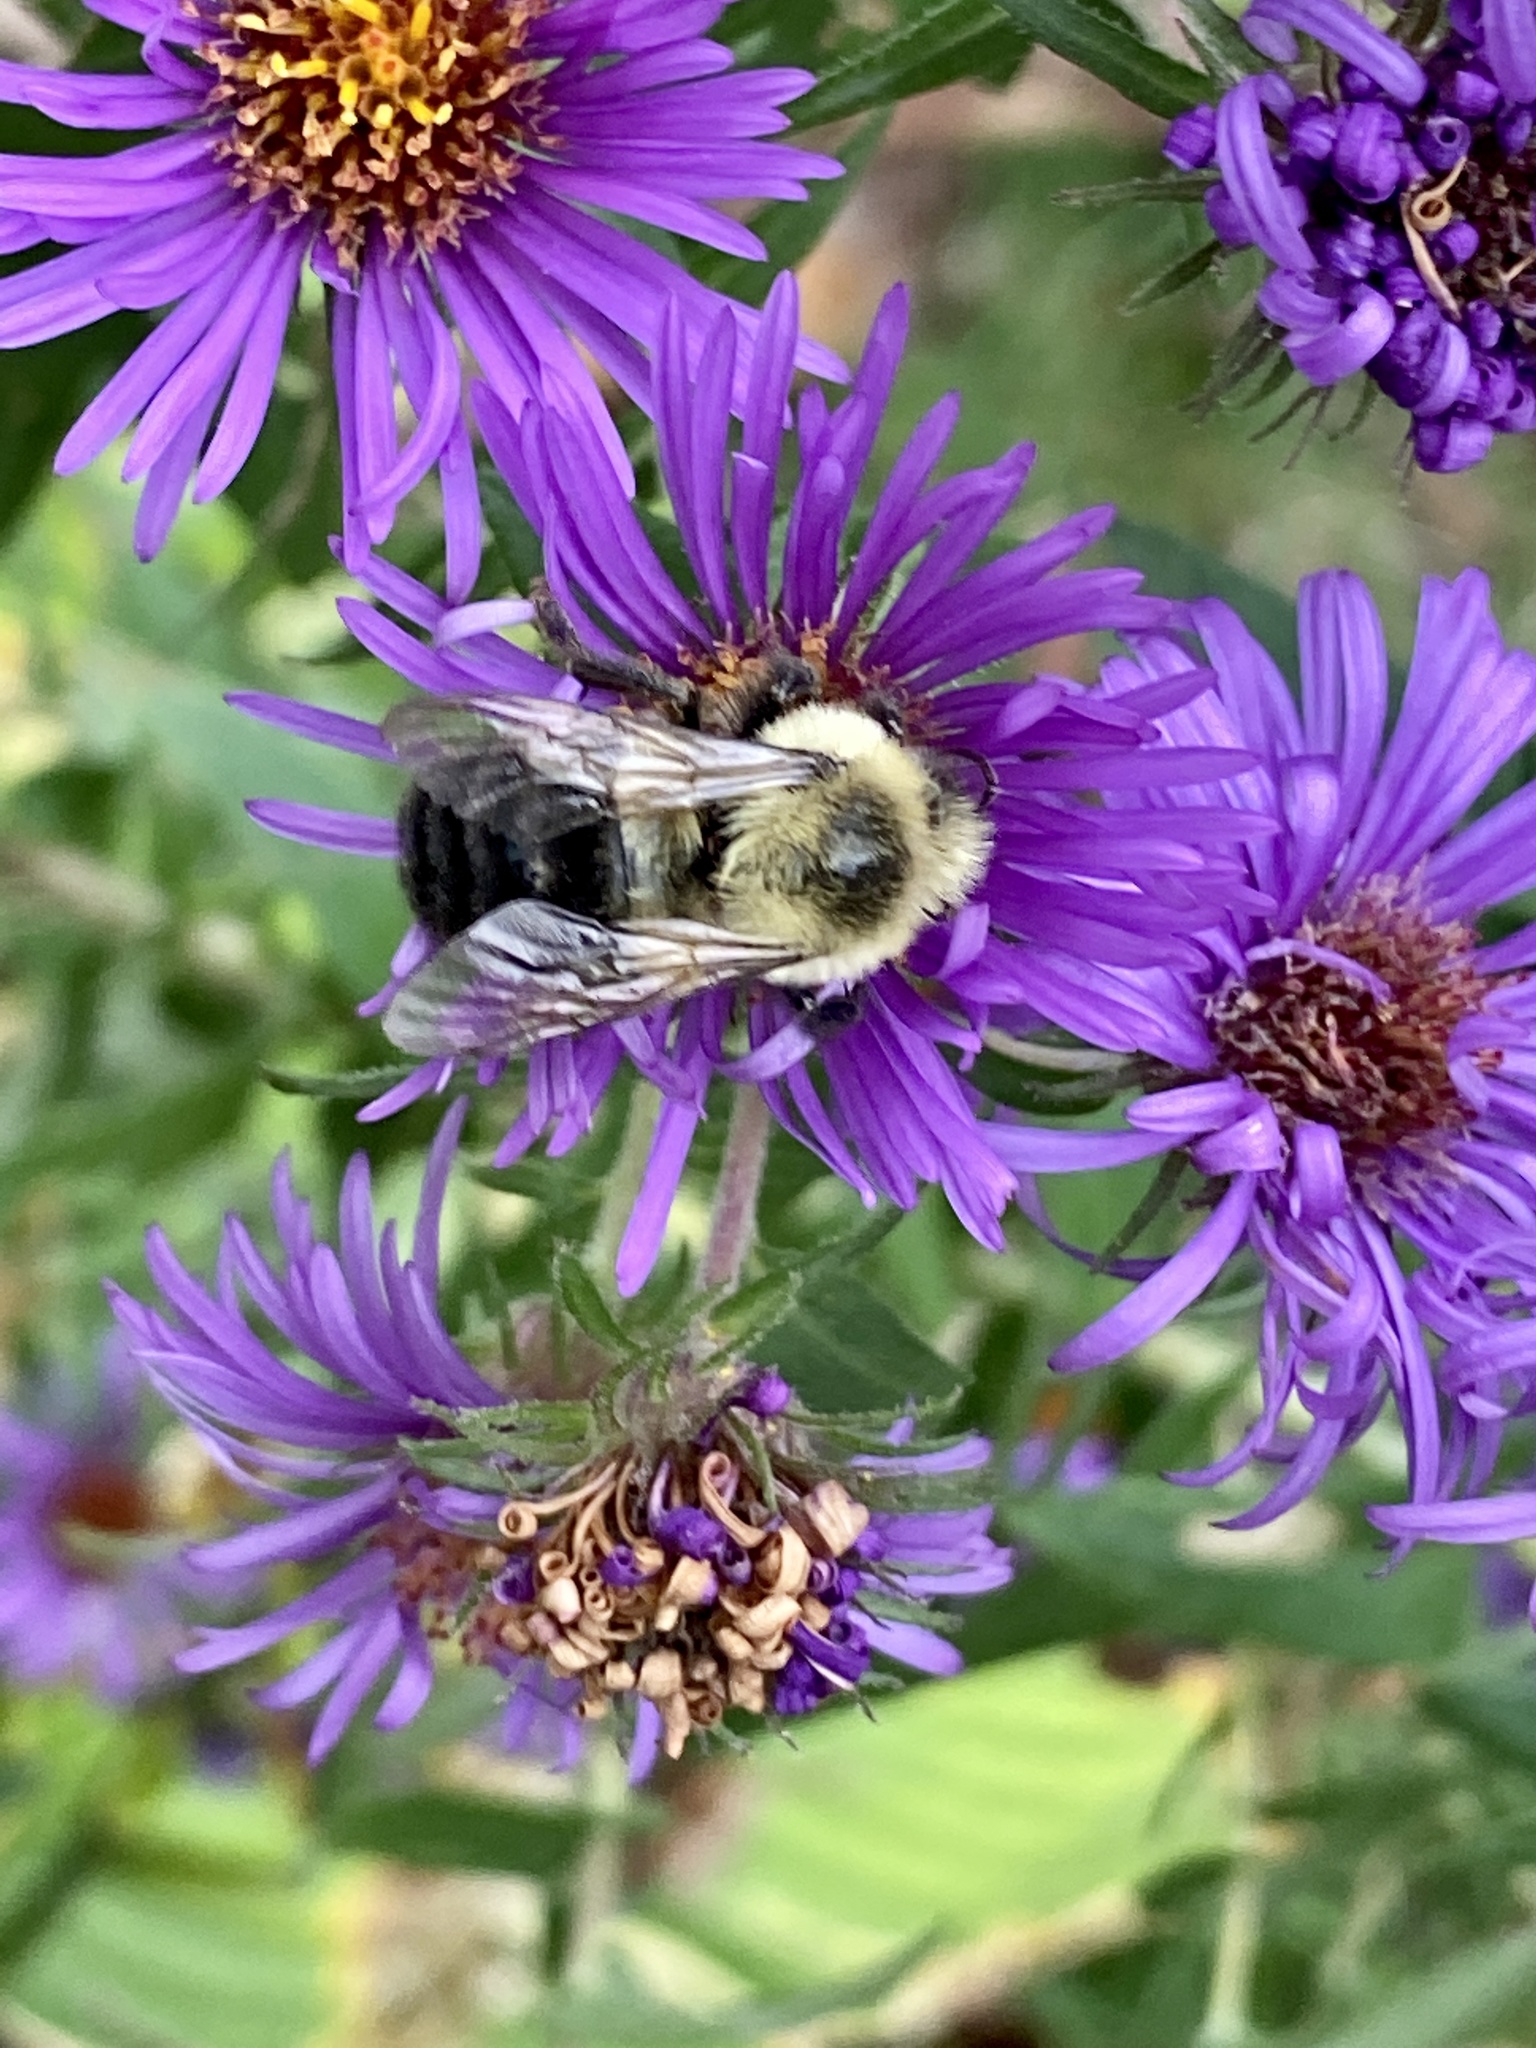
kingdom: Animalia
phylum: Arthropoda
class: Insecta
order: Hymenoptera
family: Apidae
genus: Bombus
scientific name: Bombus impatiens
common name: Common eastern bumble bee
